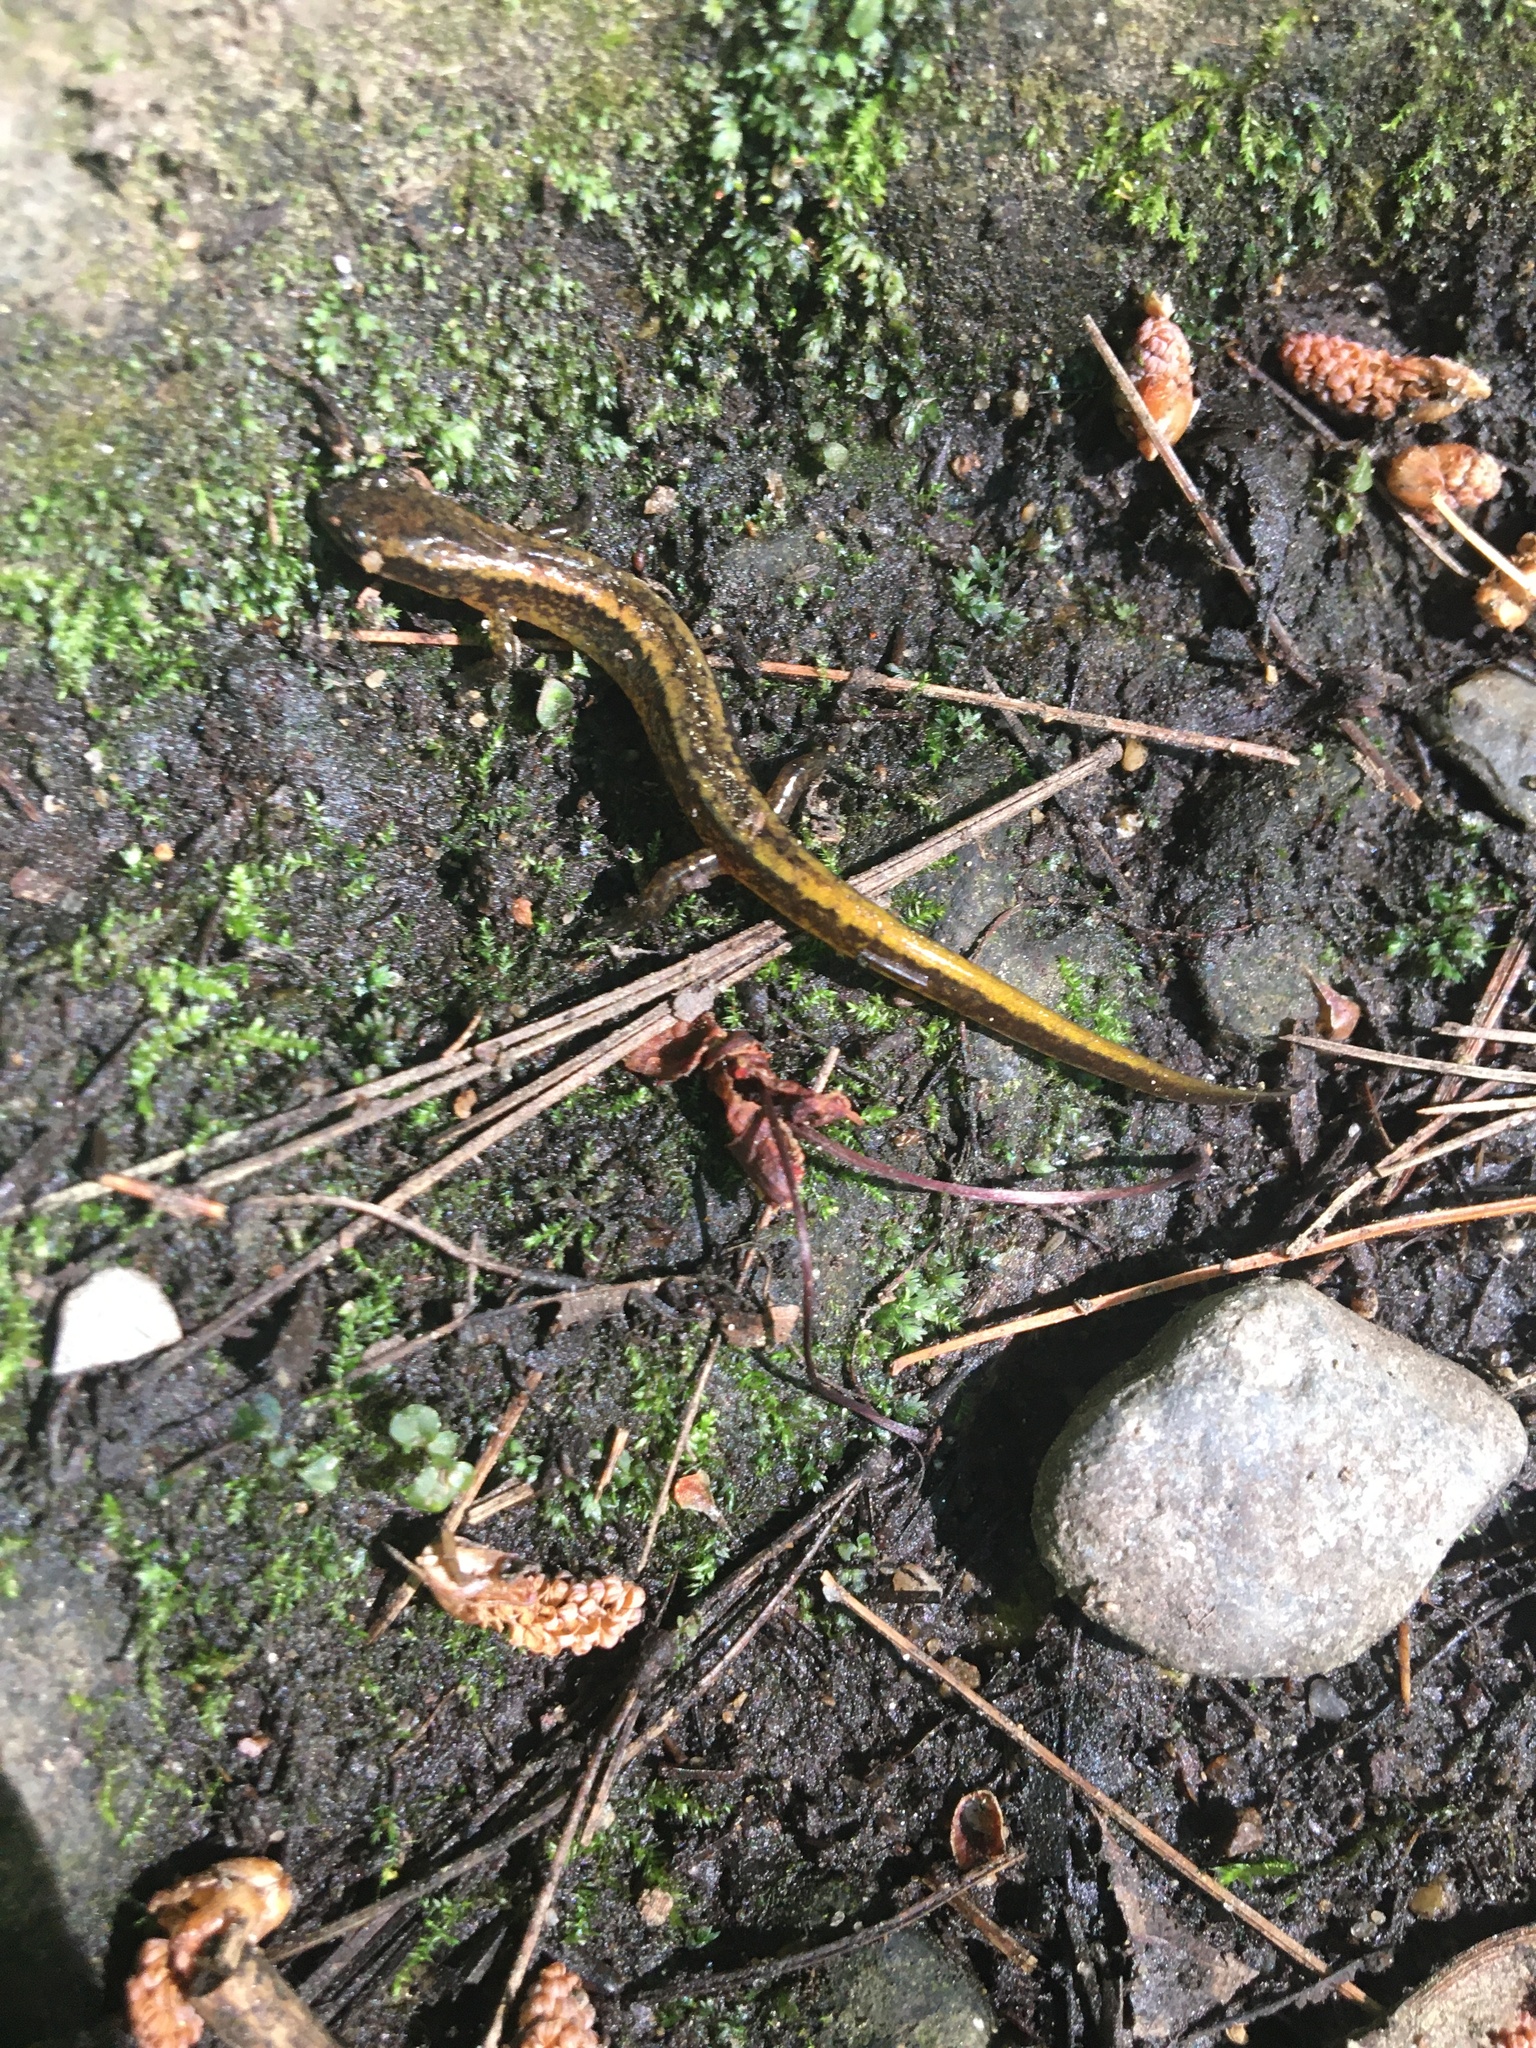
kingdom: Animalia
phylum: Chordata
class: Amphibia
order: Caudata
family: Plethodontidae
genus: Eurycea
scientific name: Eurycea bislineata
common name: Northern two-lined salamander
